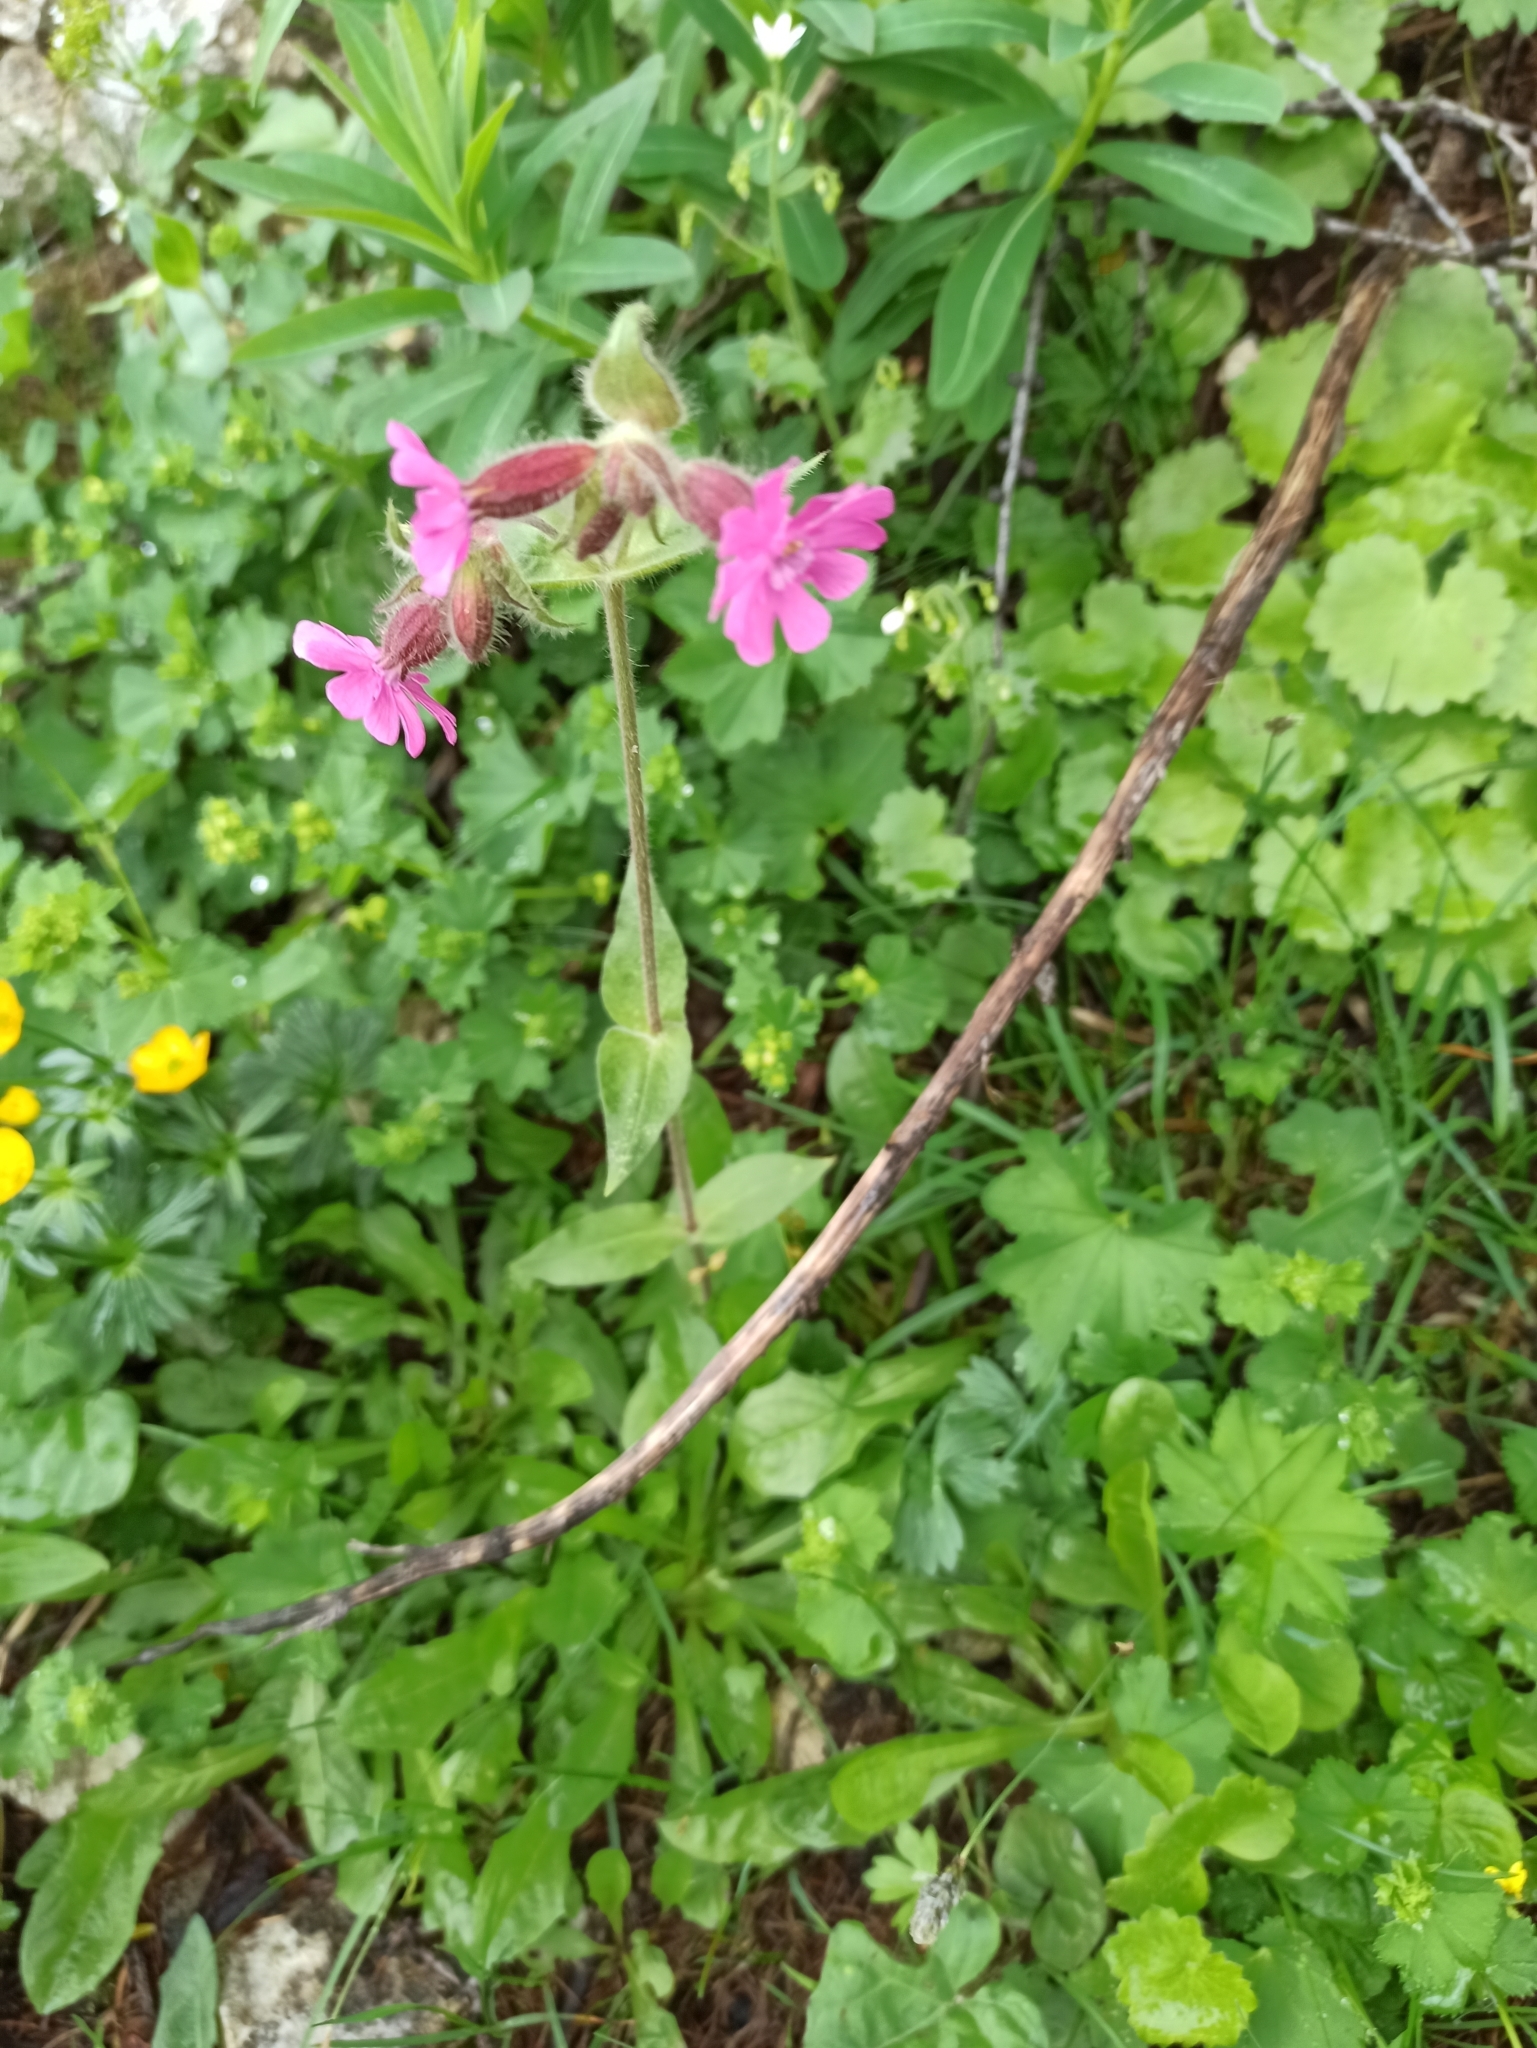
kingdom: Plantae
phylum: Tracheophyta
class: Magnoliopsida
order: Caryophyllales
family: Caryophyllaceae
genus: Silene
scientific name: Silene dioica
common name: Red campion
